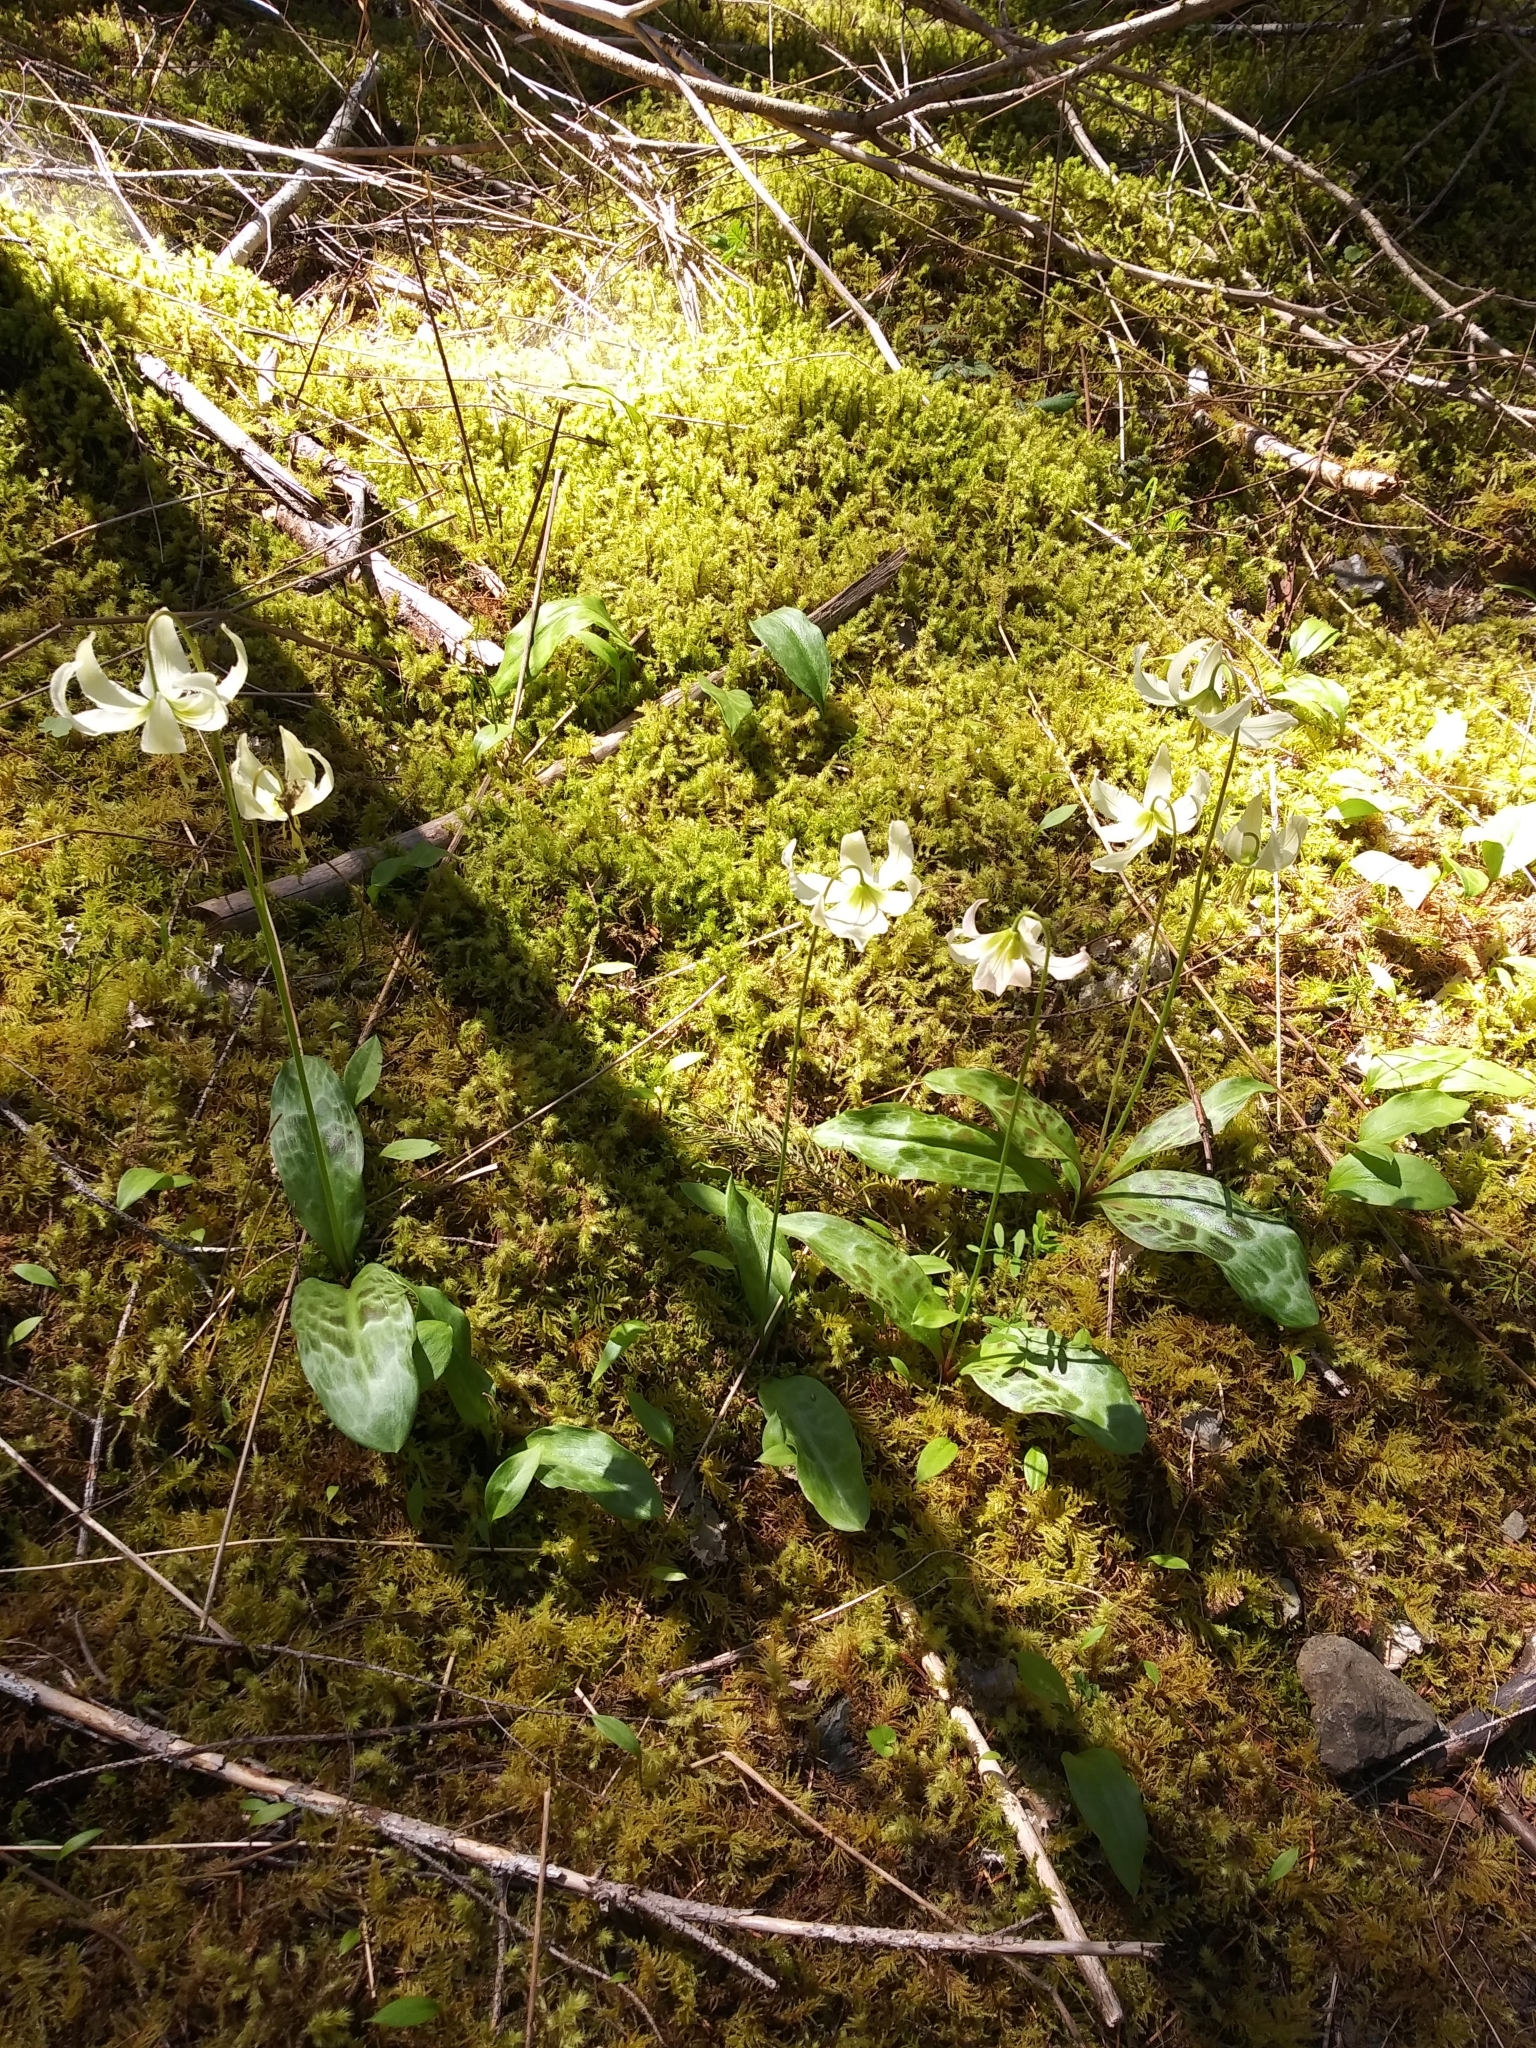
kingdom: Plantae
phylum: Tracheophyta
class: Liliopsida
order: Liliales
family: Liliaceae
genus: Erythronium
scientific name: Erythronium oregonum
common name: Giant adder's-tongue
